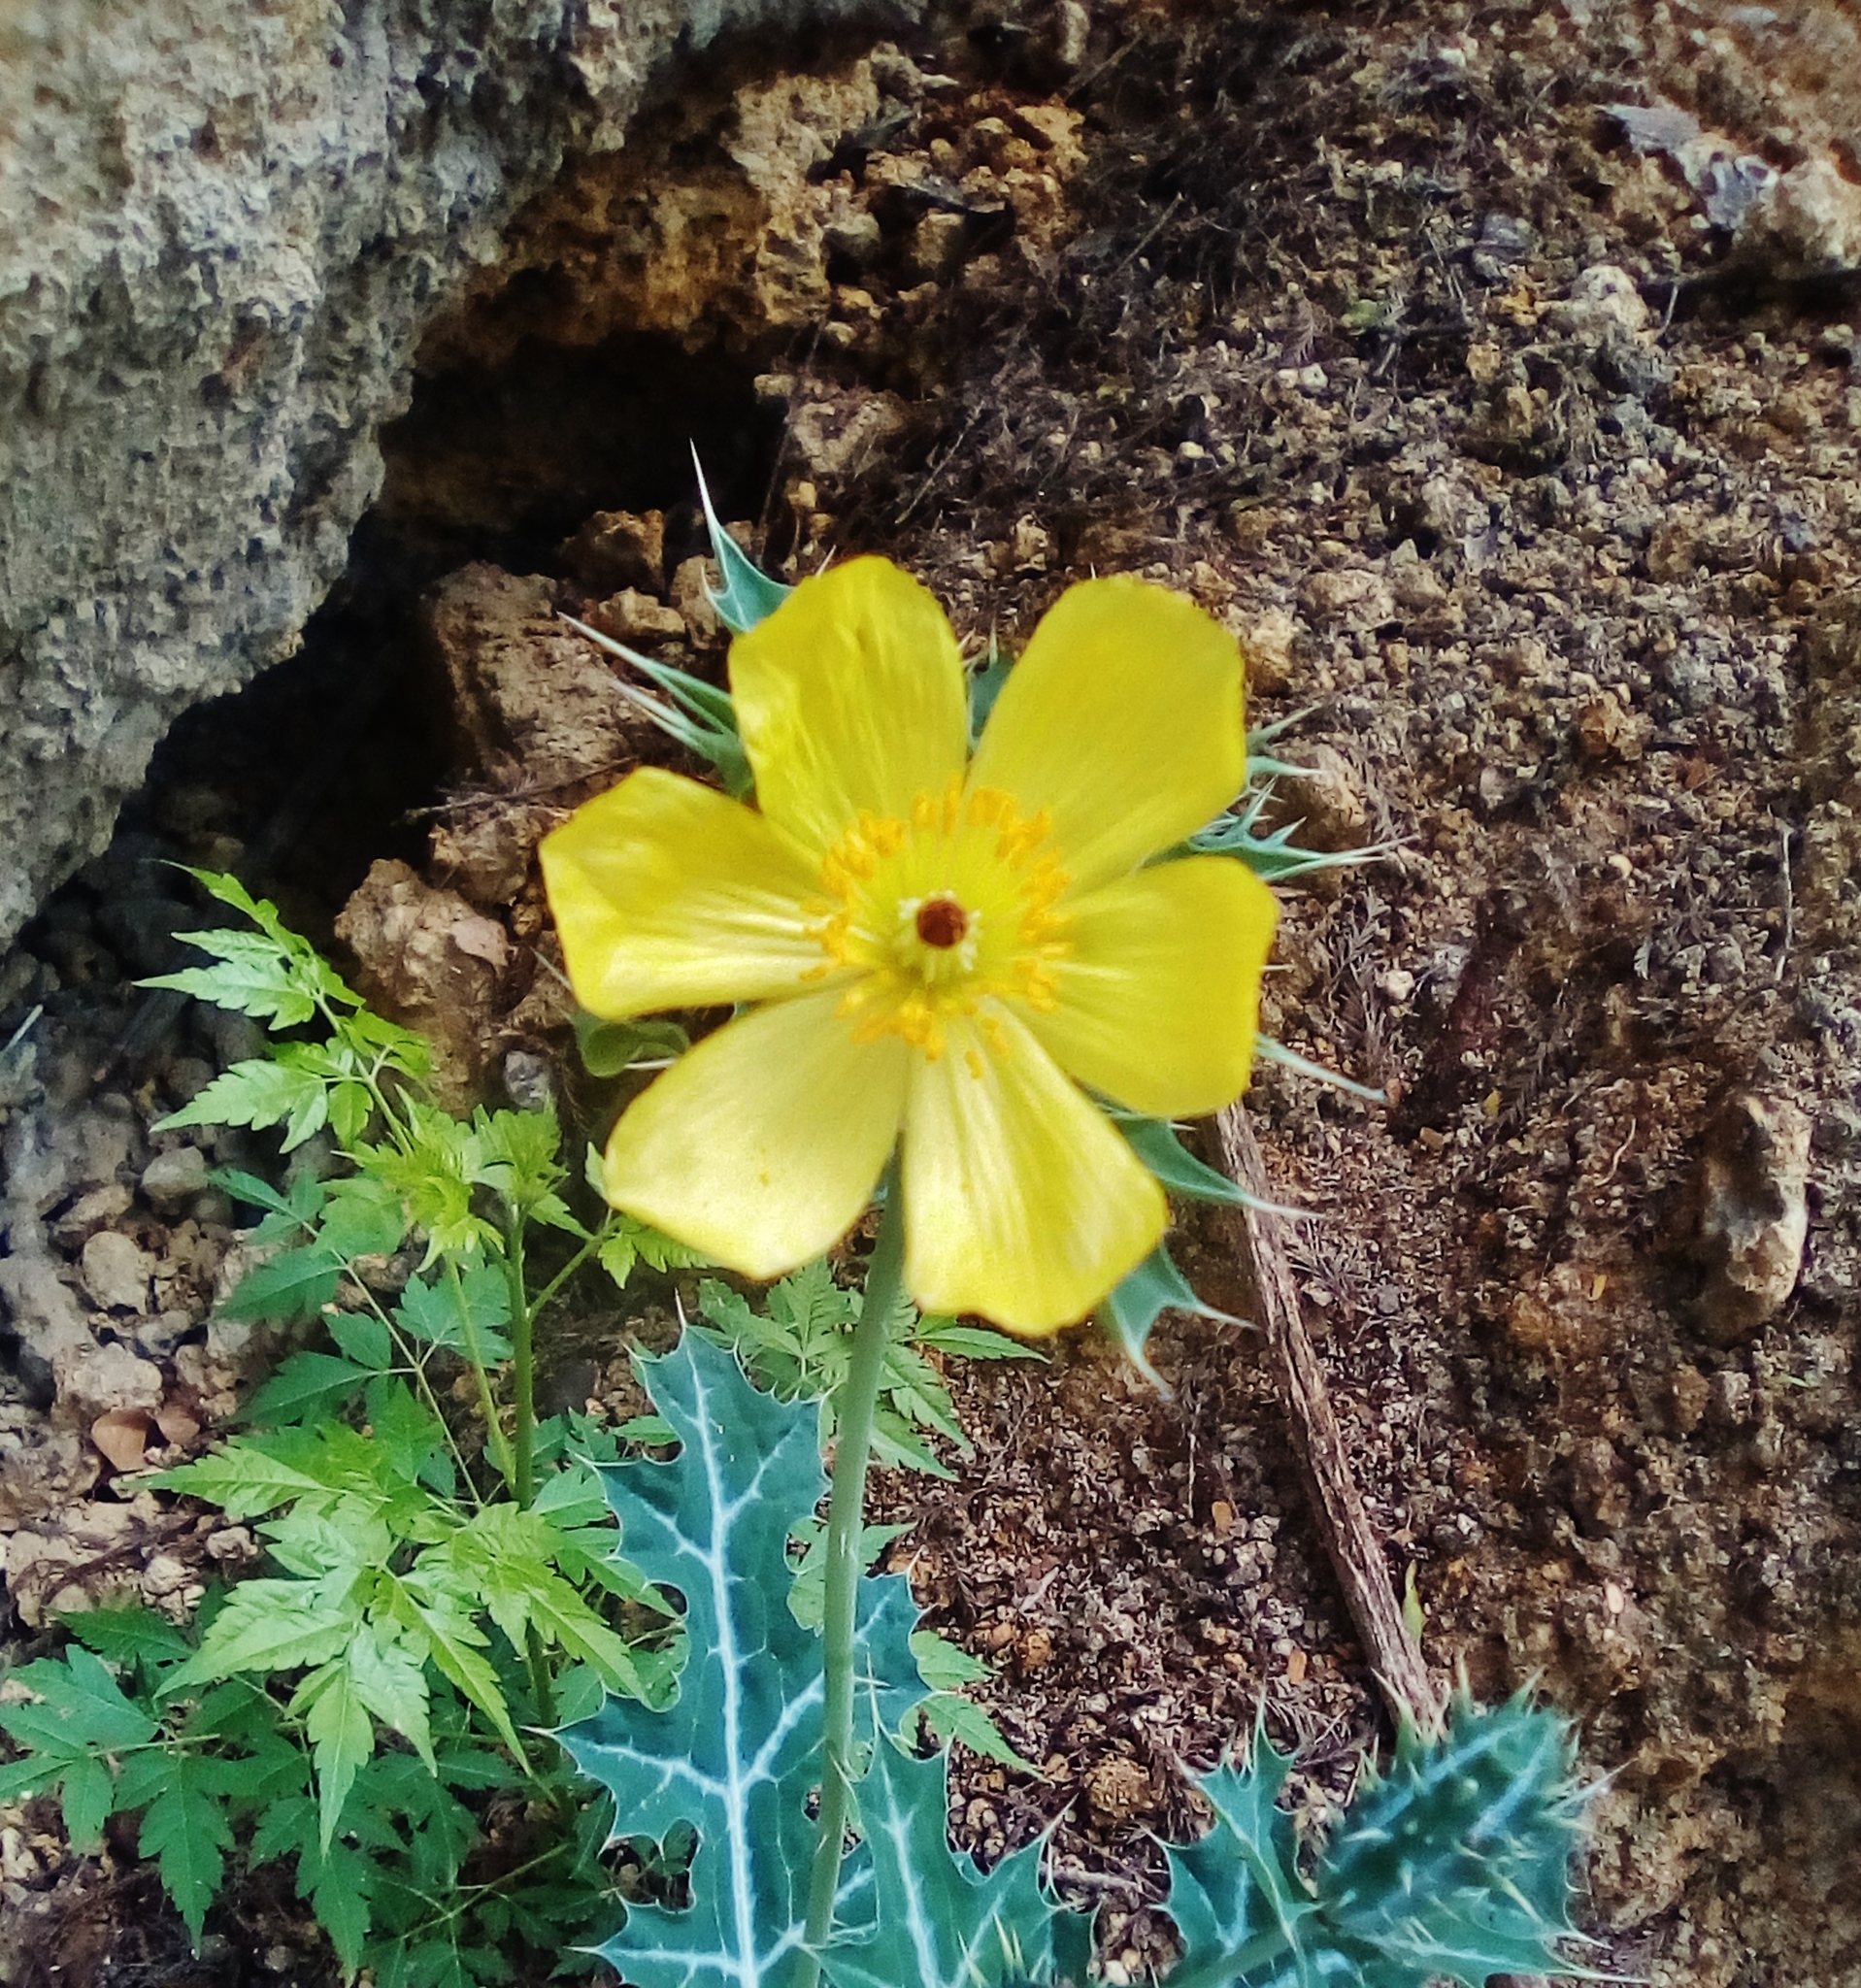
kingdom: Plantae
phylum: Tracheophyta
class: Magnoliopsida
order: Ranunculales
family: Papaveraceae
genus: Argemone
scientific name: Argemone mexicana
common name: Mexican poppy
